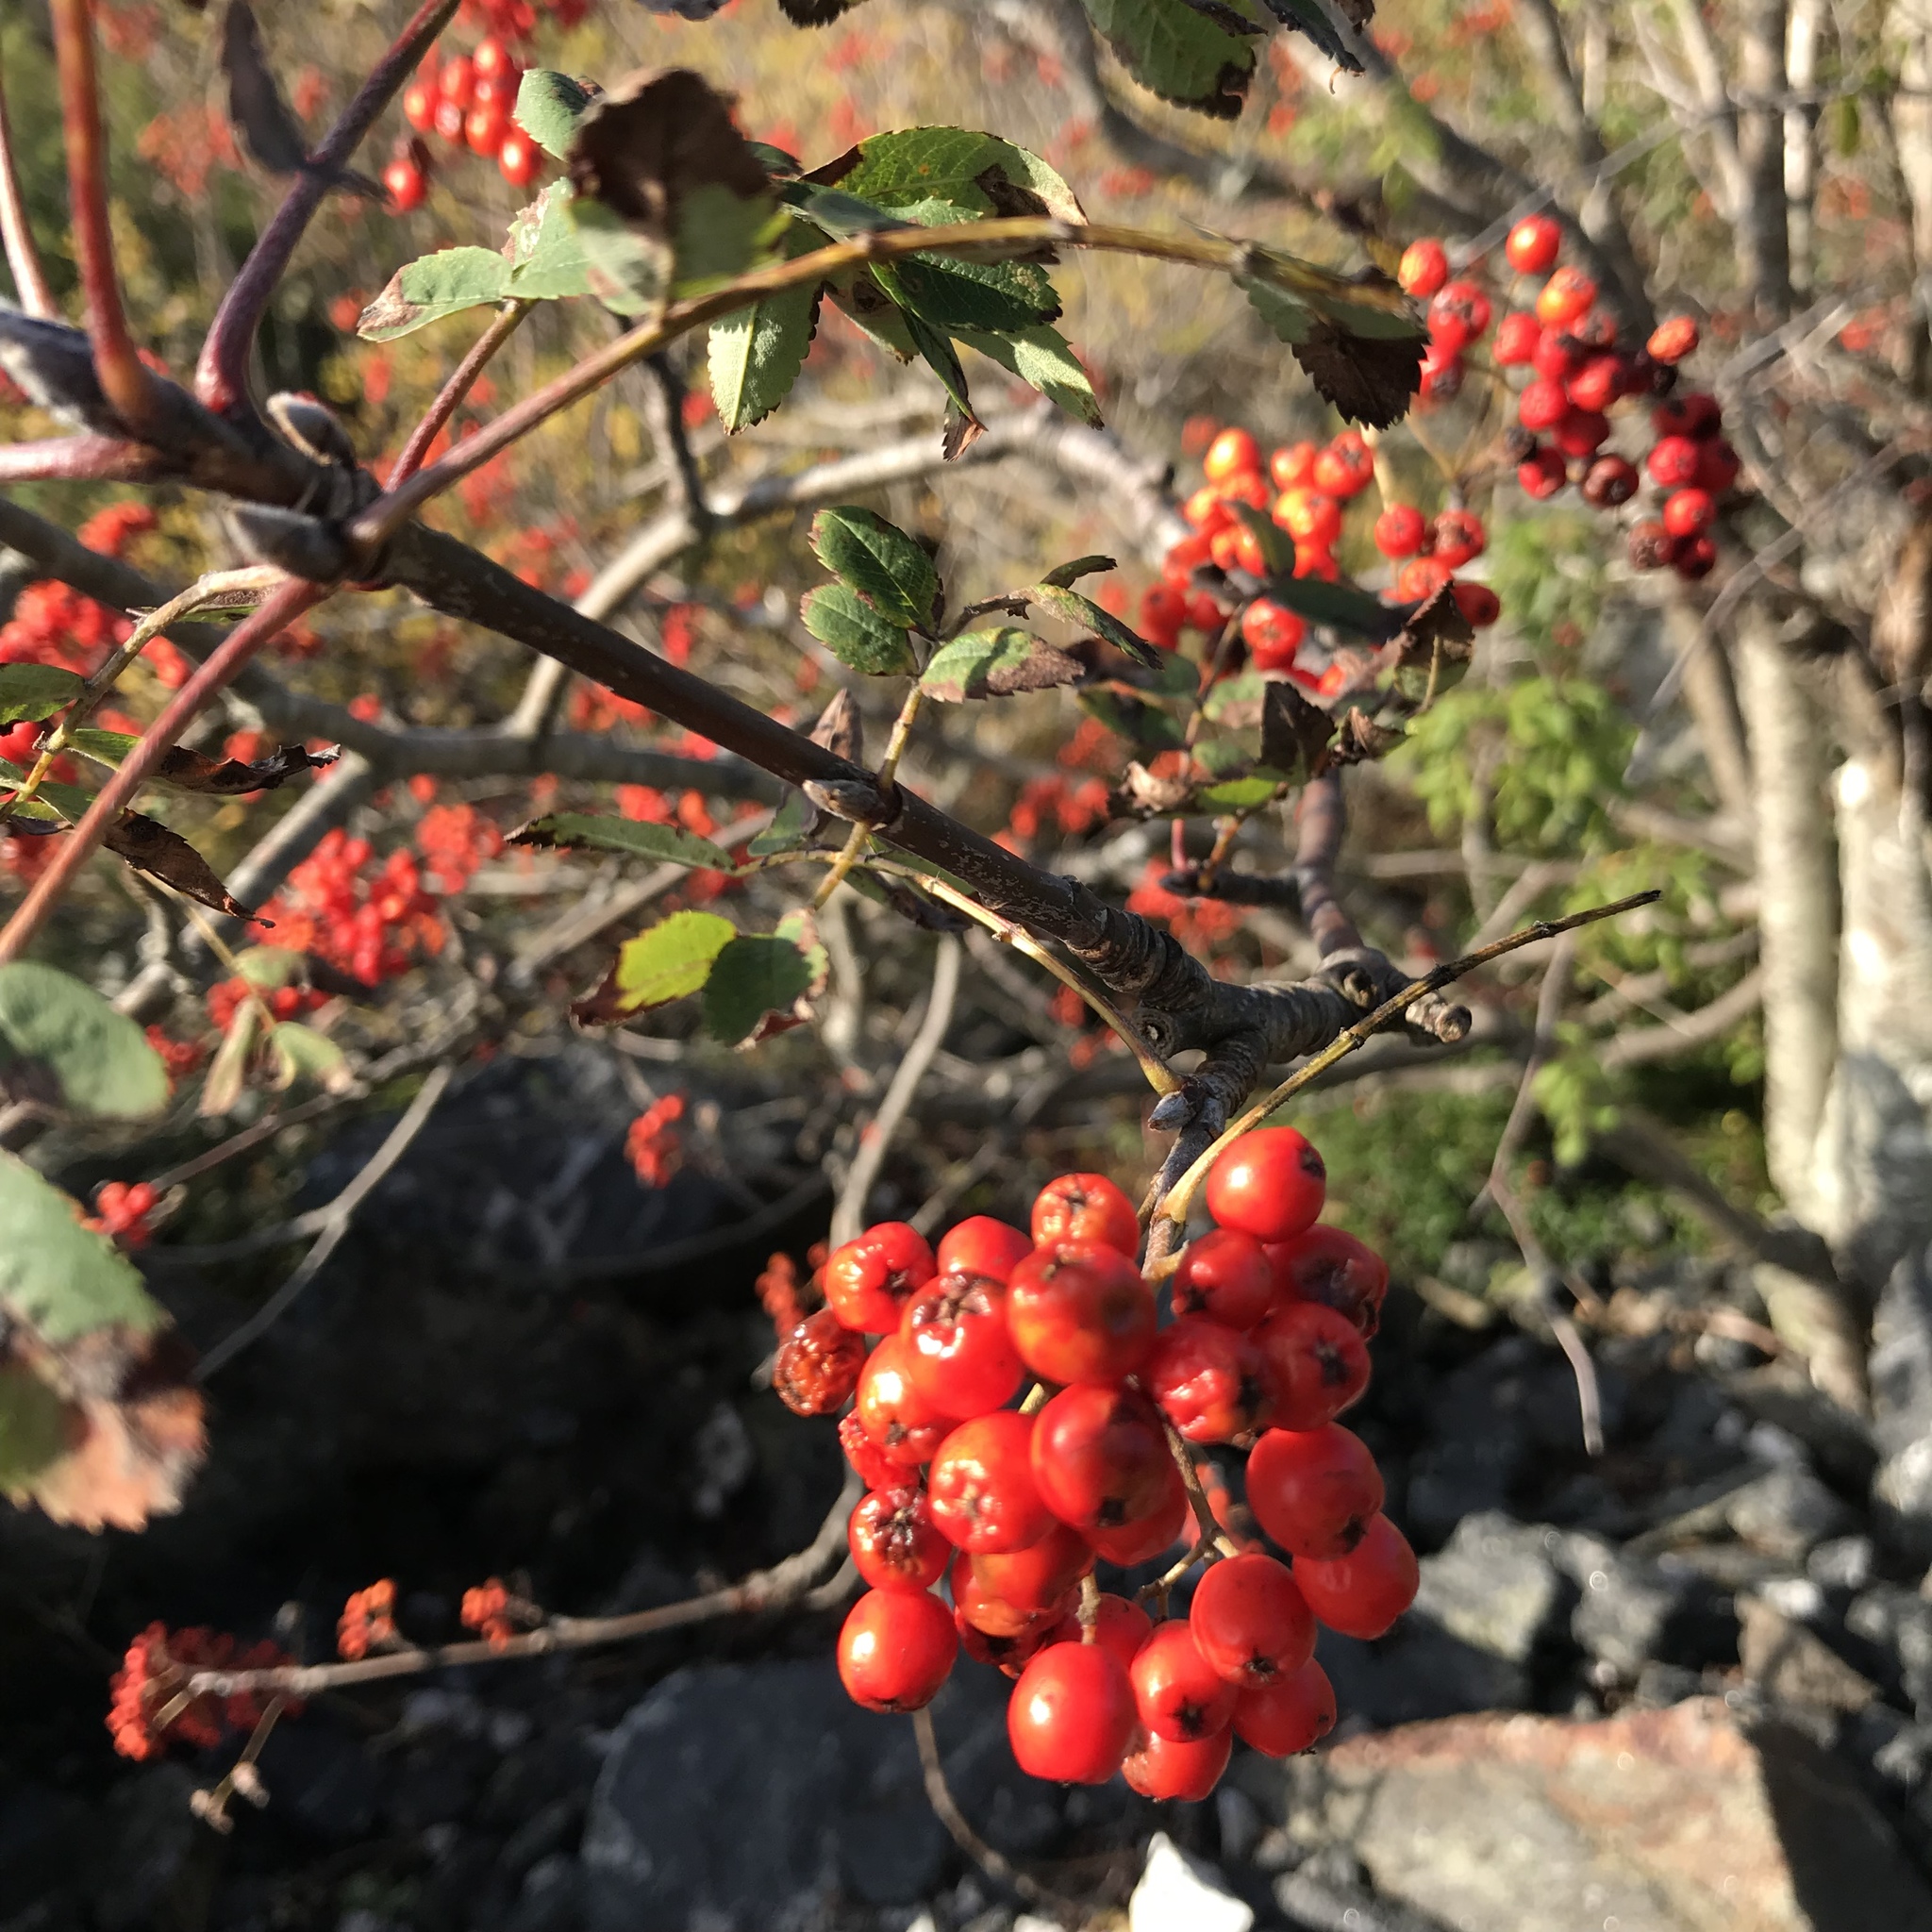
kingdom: Plantae
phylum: Tracheophyta
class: Magnoliopsida
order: Rosales
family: Rosaceae
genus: Sorbus
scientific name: Sorbus aucuparia
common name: Rowan
